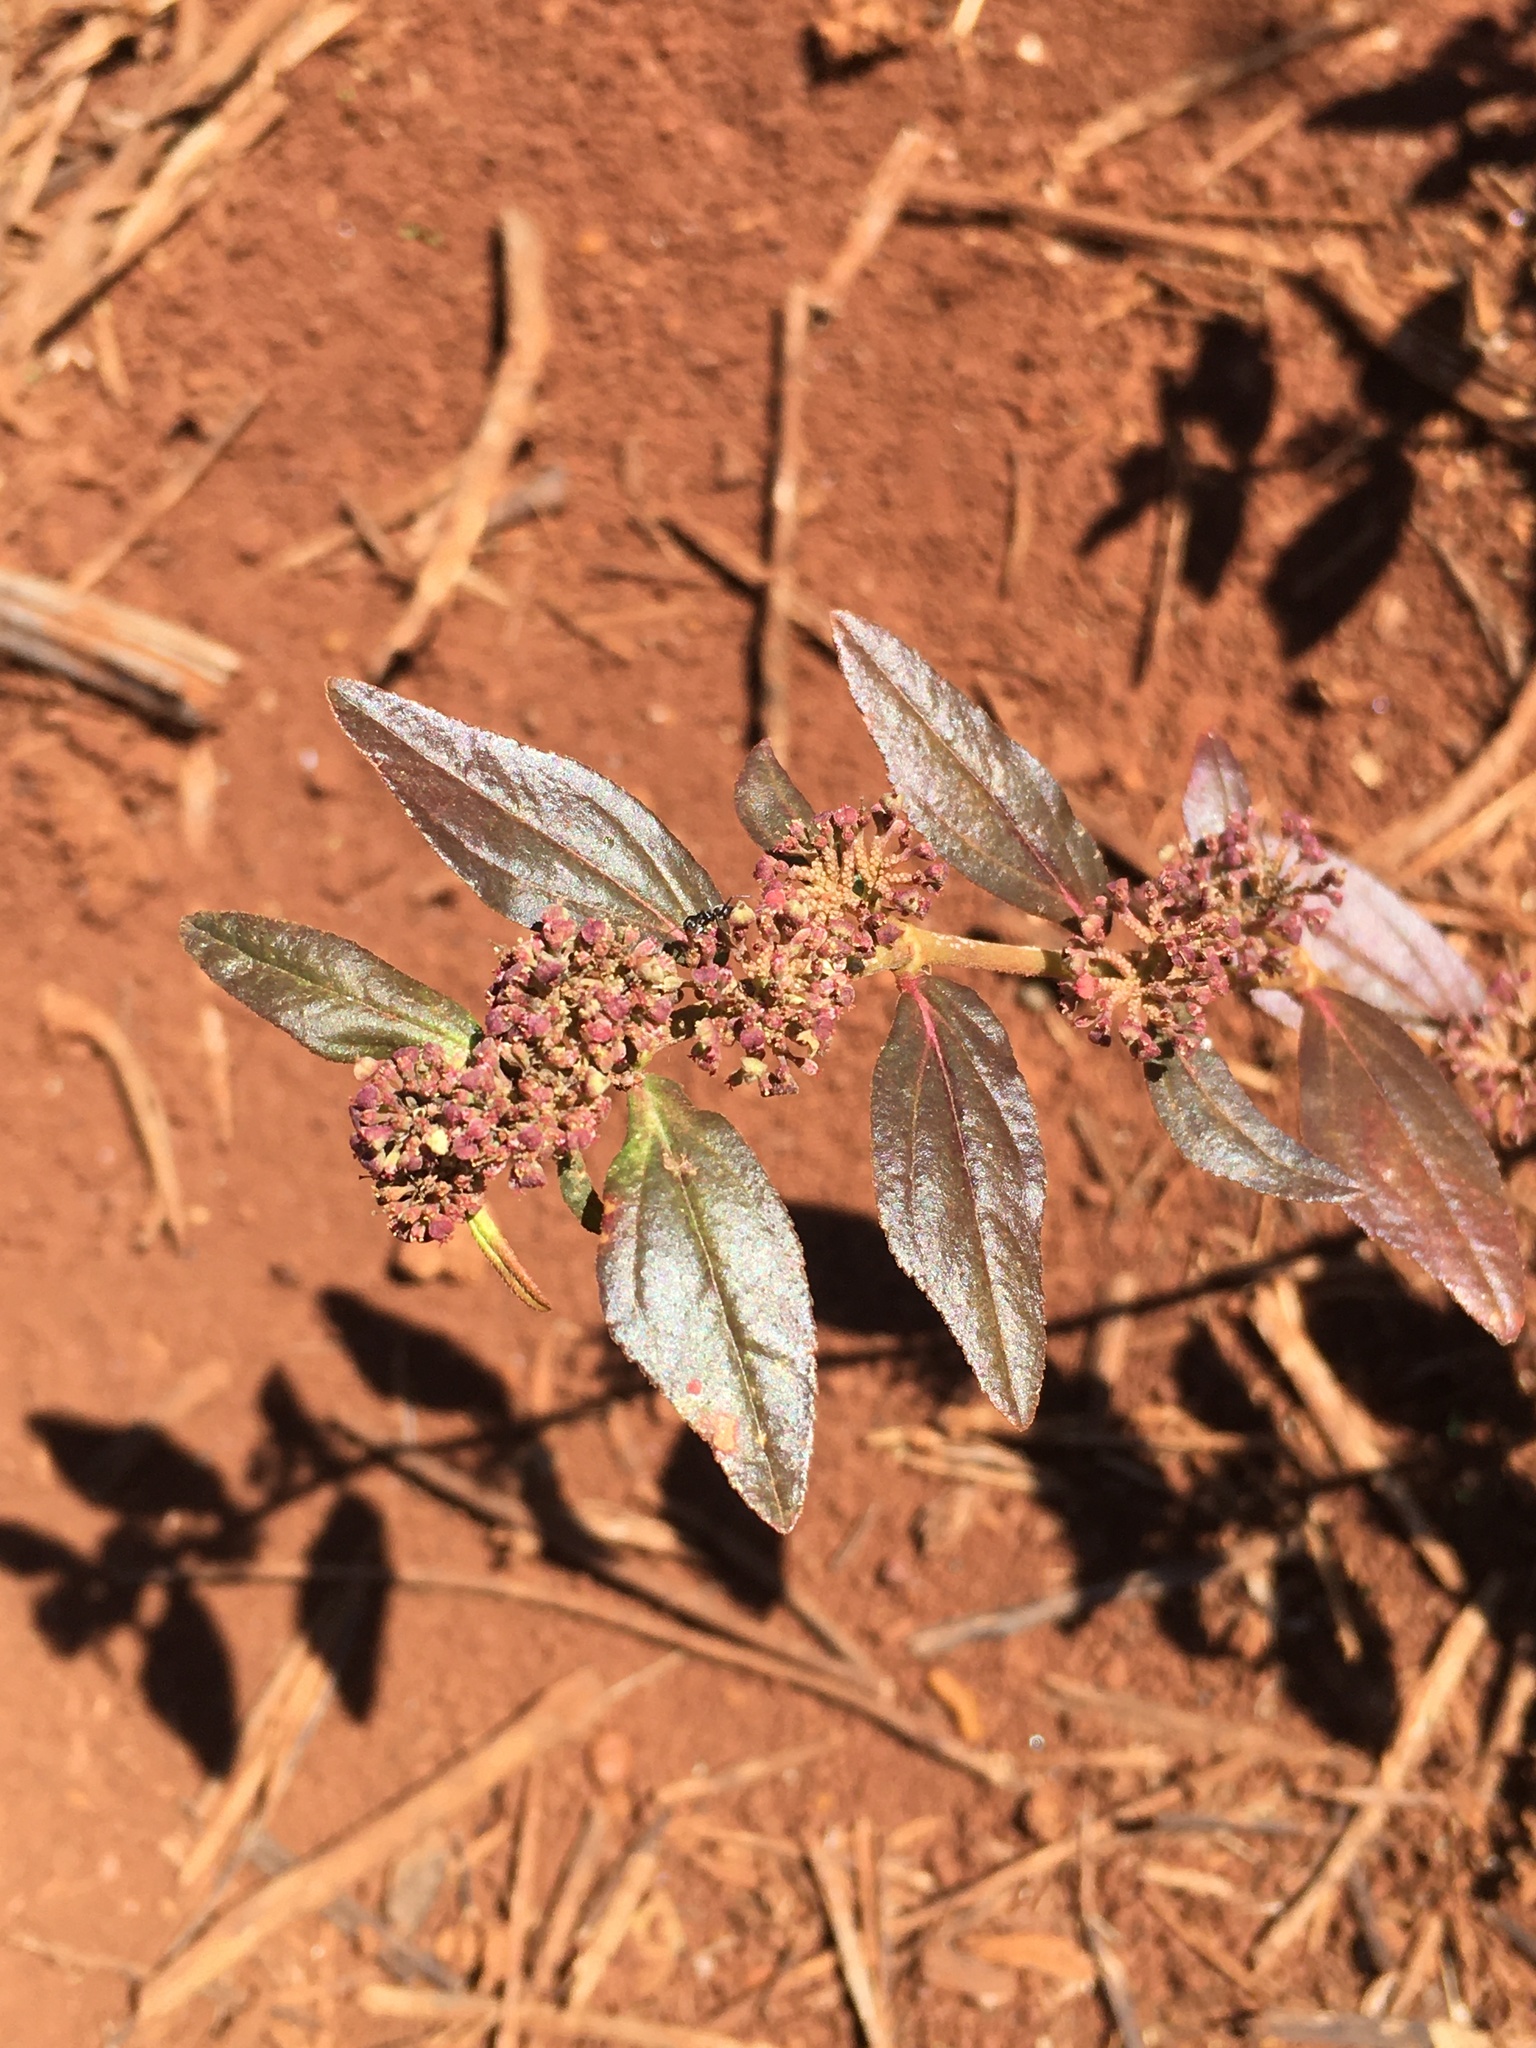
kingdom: Plantae
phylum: Tracheophyta
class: Magnoliopsida
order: Malpighiales
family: Euphorbiaceae
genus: Euphorbia
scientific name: Euphorbia hirta
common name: Pillpod sandmat
